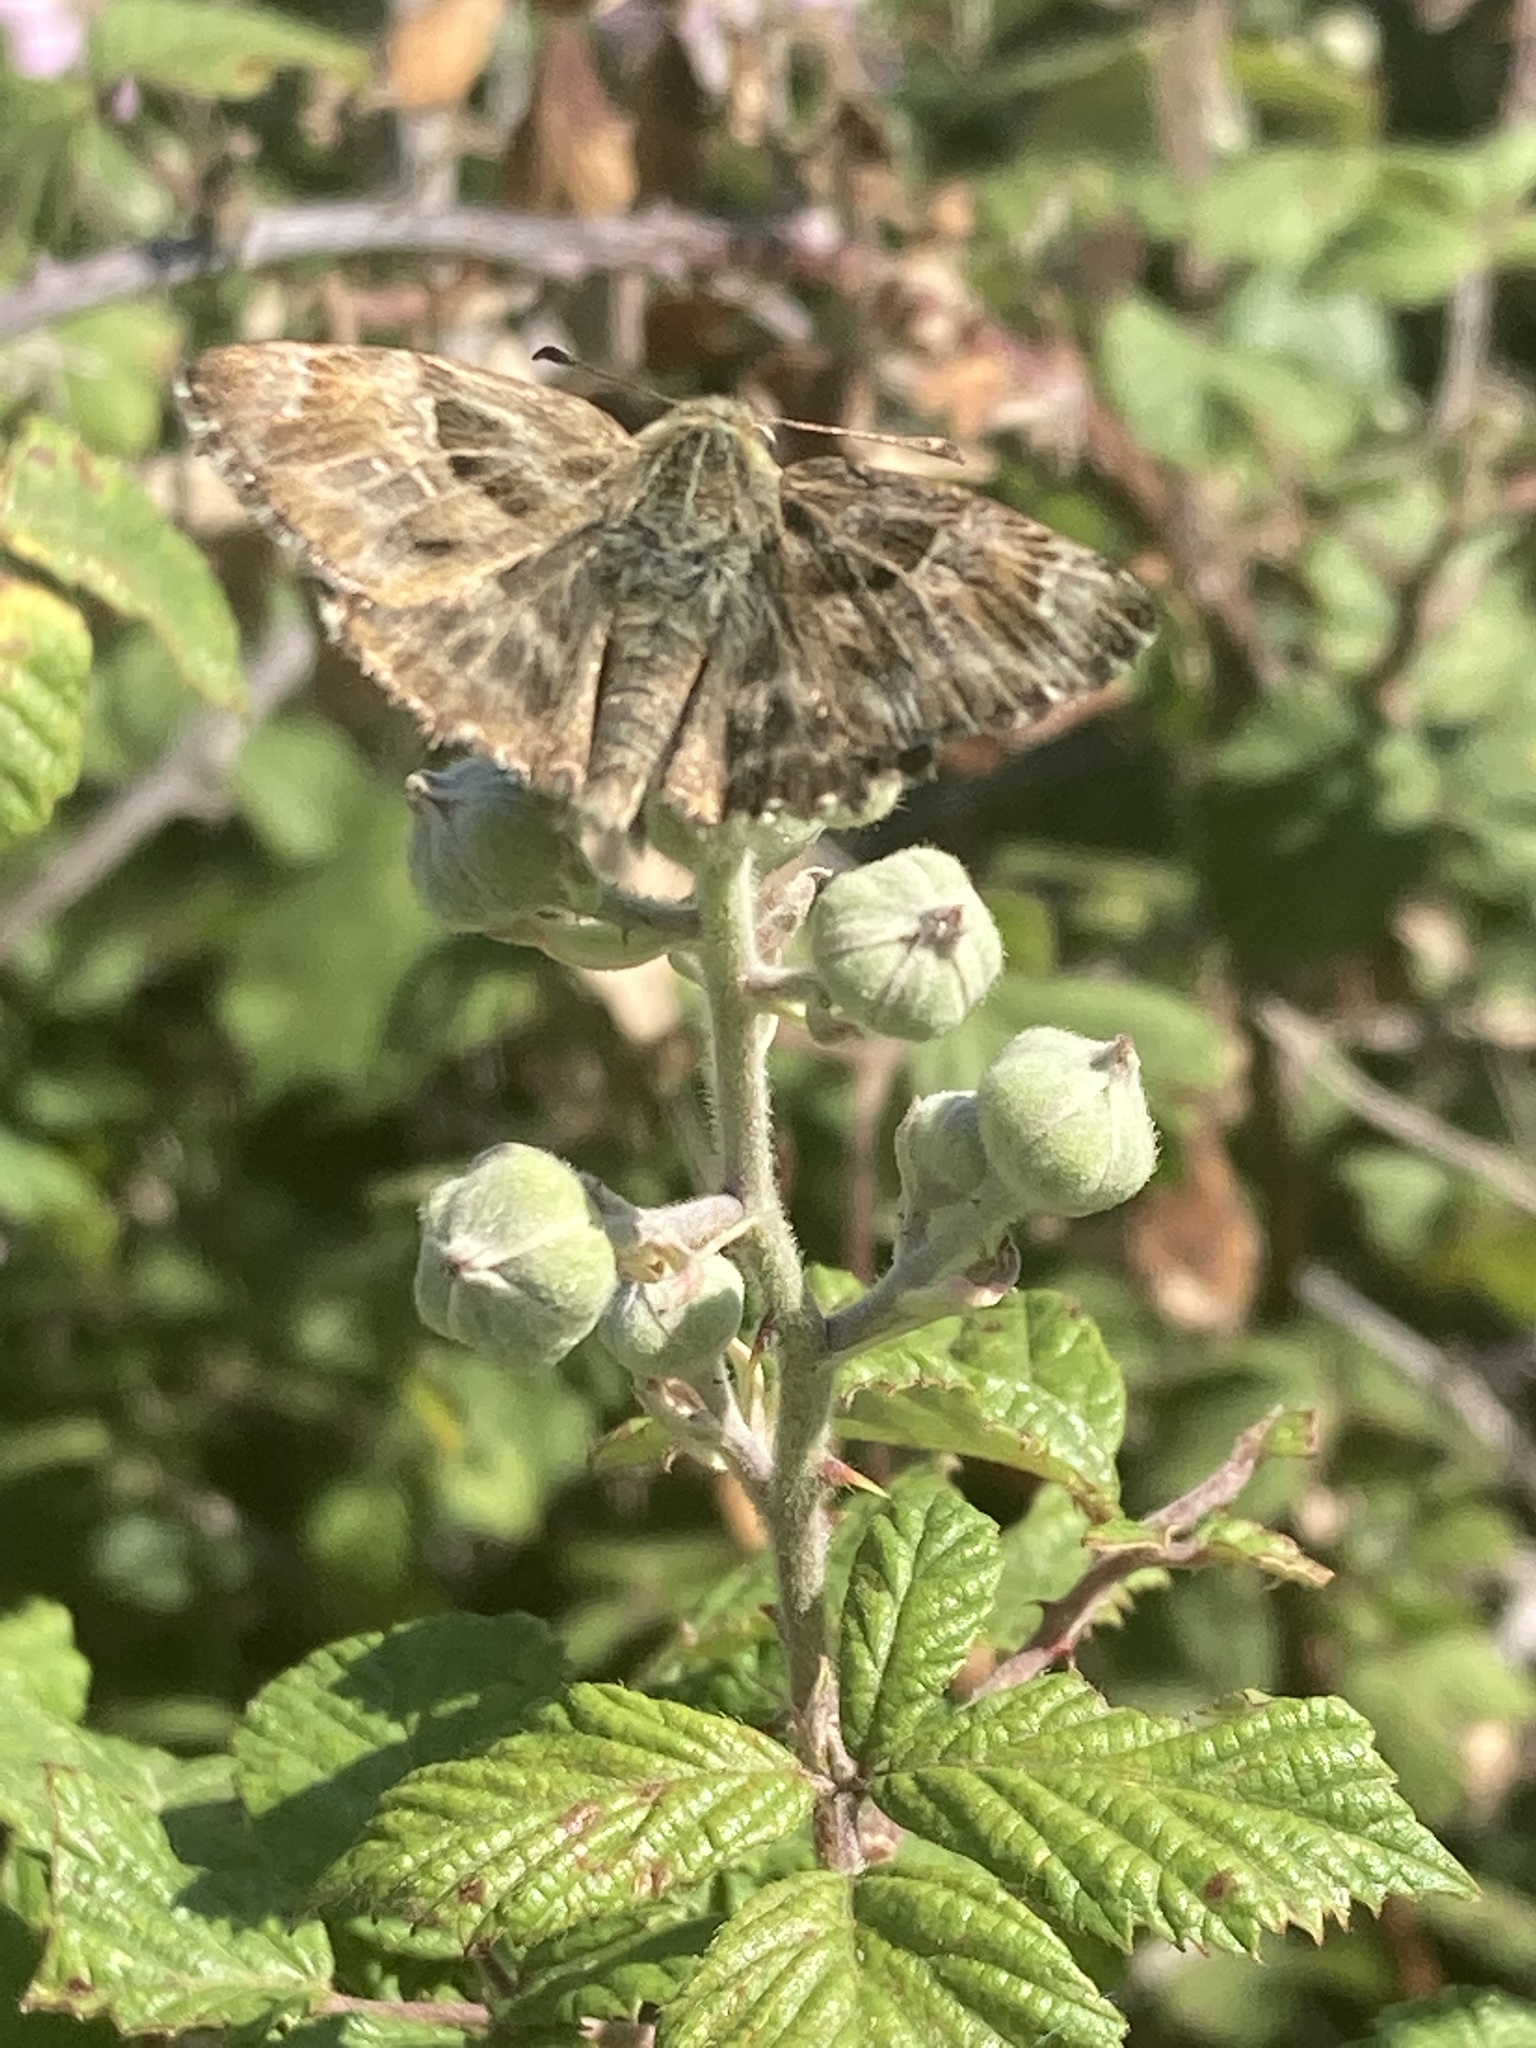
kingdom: Animalia
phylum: Arthropoda
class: Insecta
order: Lepidoptera
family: Hesperiidae
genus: Carcharodus
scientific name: Carcharodus alceae
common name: Mallow skipper
